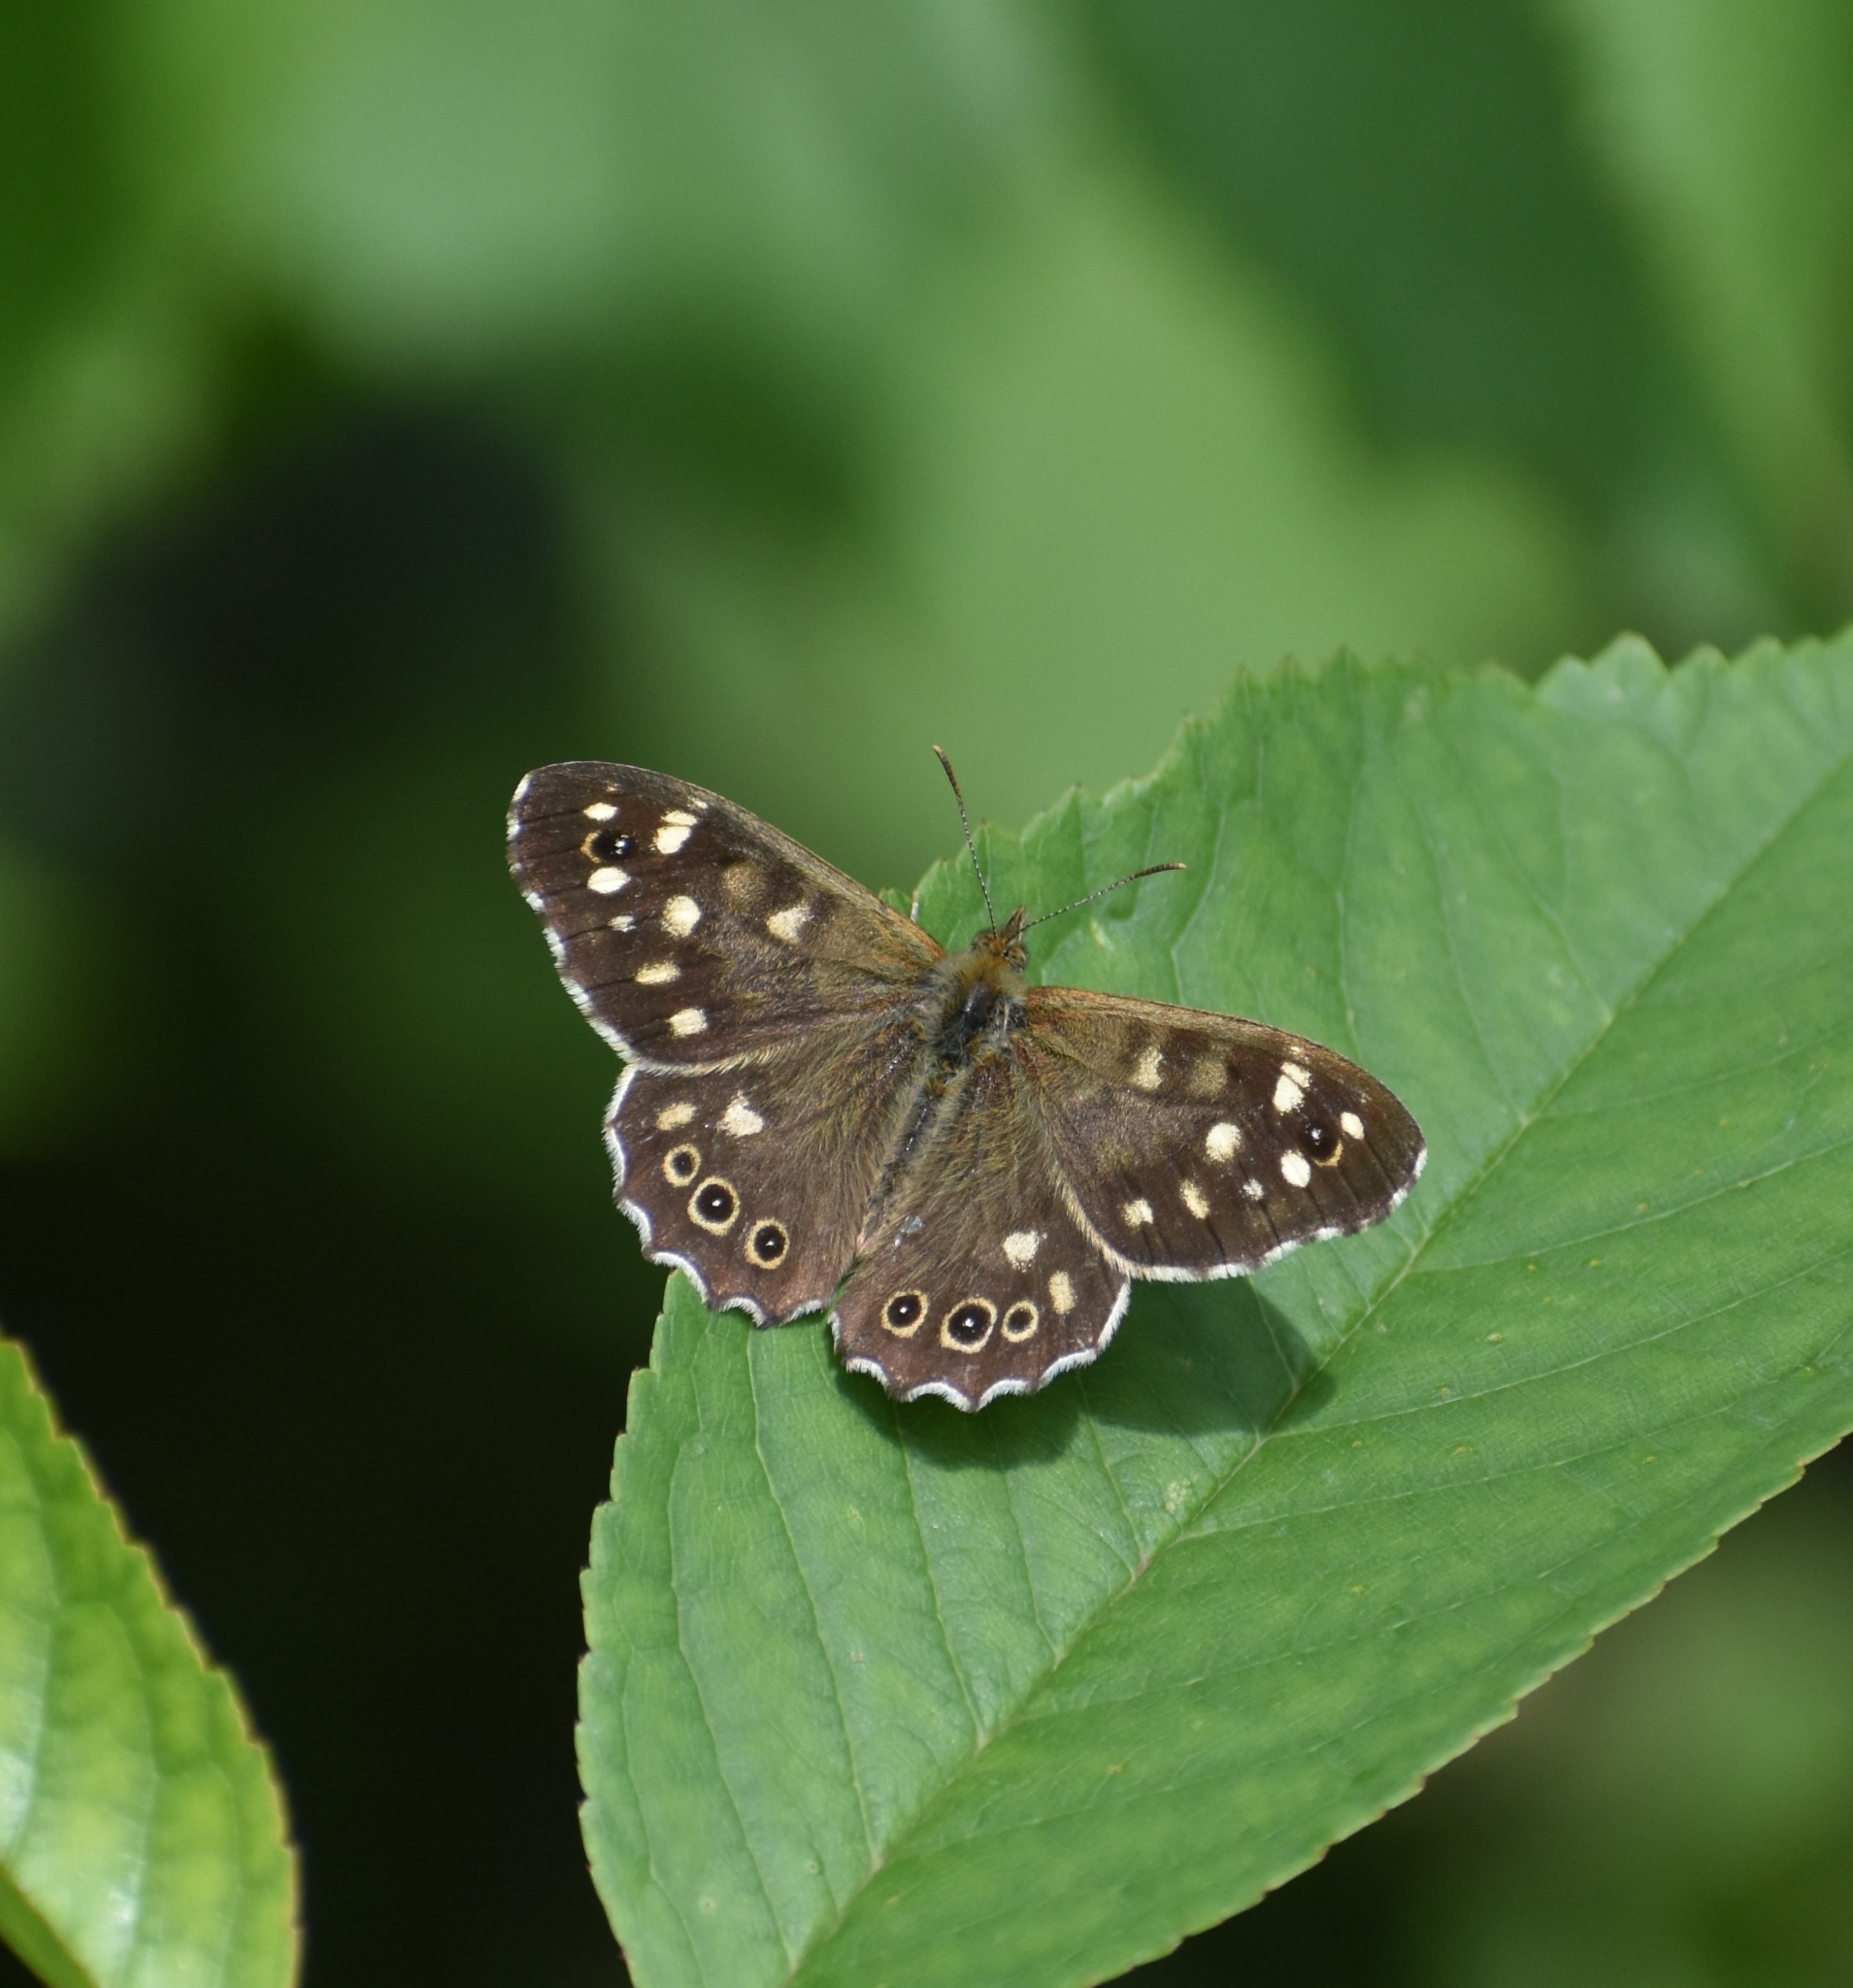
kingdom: Animalia
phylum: Arthropoda
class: Insecta
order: Lepidoptera
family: Nymphalidae
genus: Pararge
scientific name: Pararge aegeria
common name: Speckled wood
